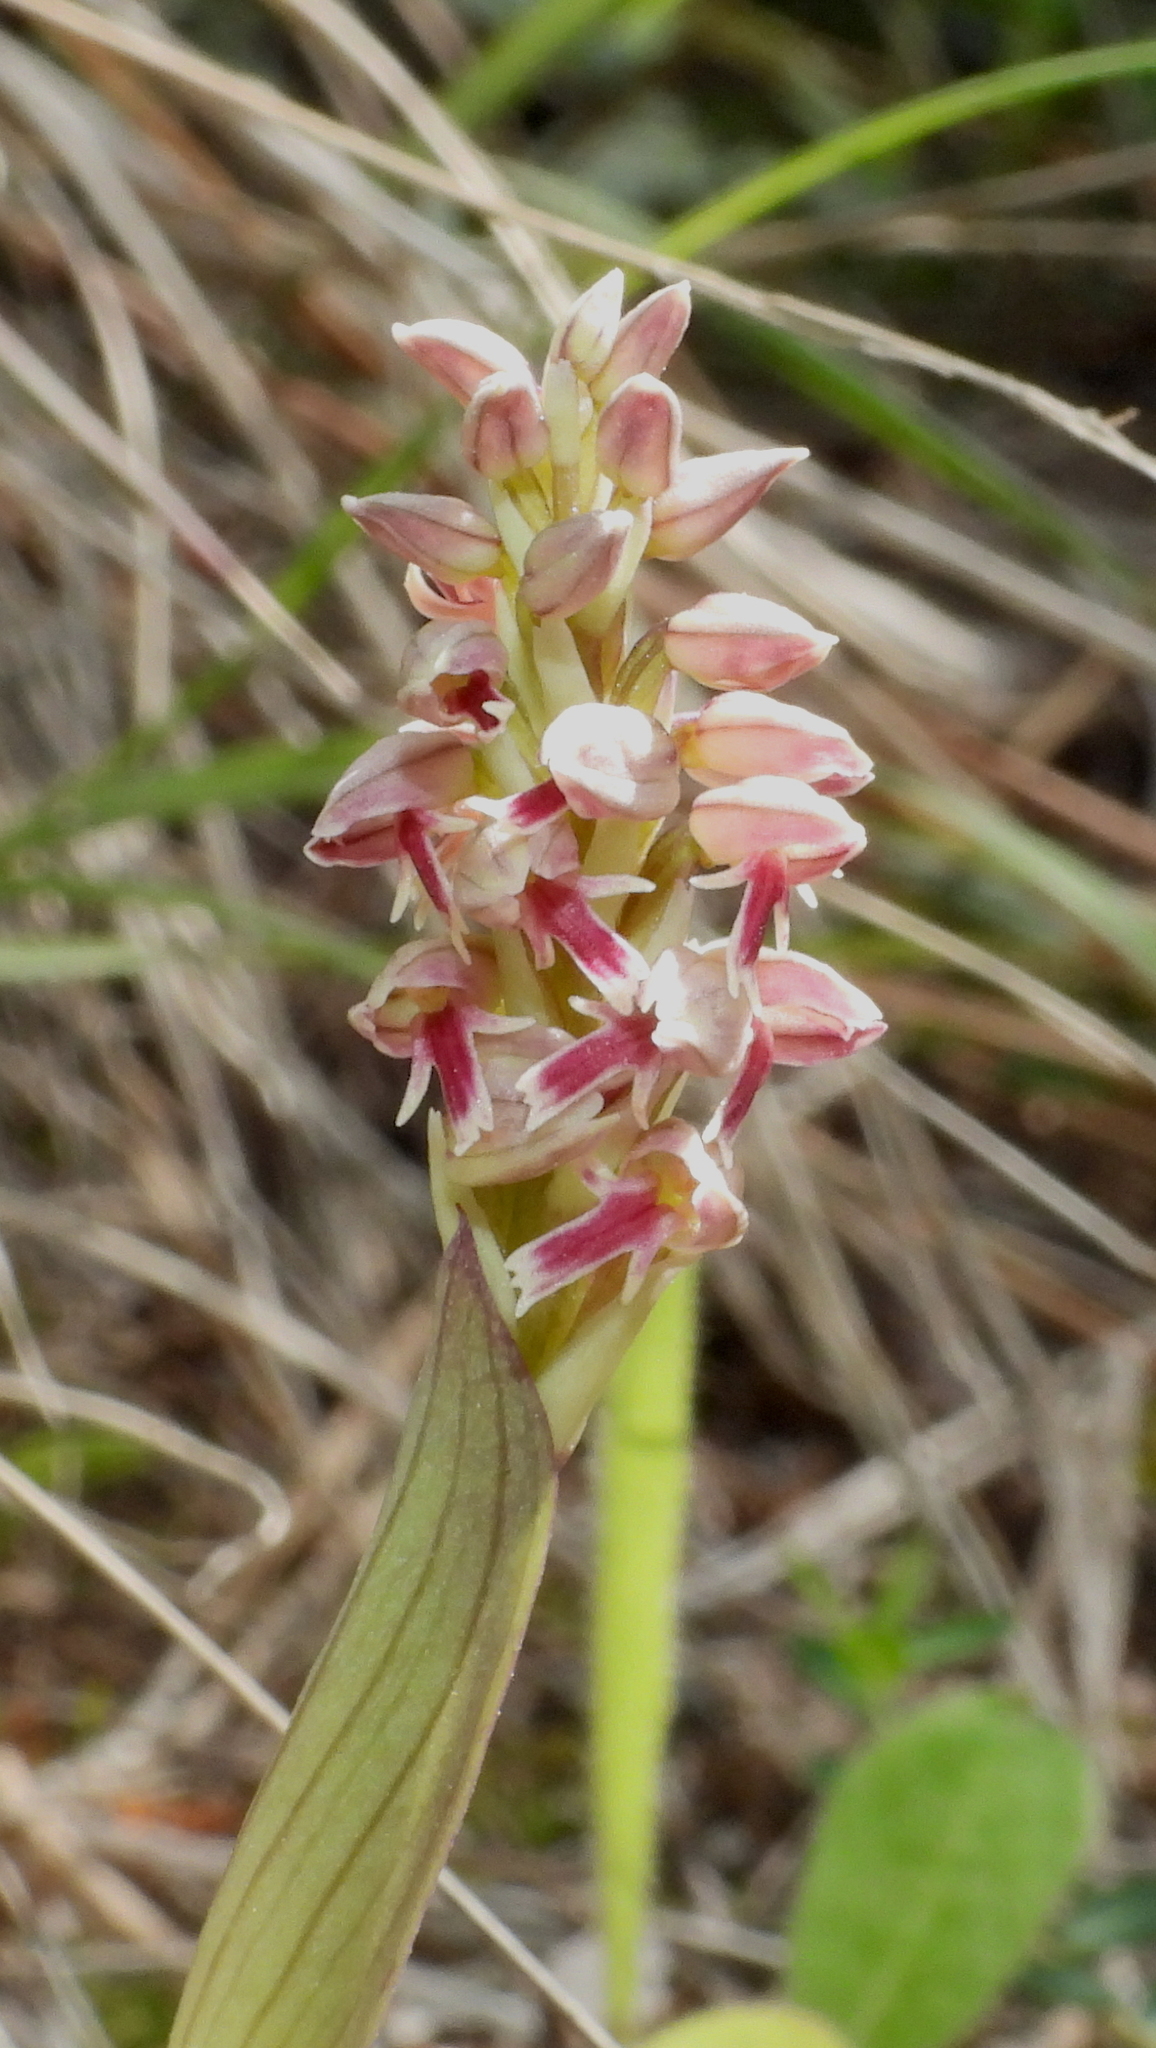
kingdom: Plantae
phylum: Tracheophyta
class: Liliopsida
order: Asparagales
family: Orchidaceae
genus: Neotinea
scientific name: Neotinea maculata
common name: Dense-flowered orchid
